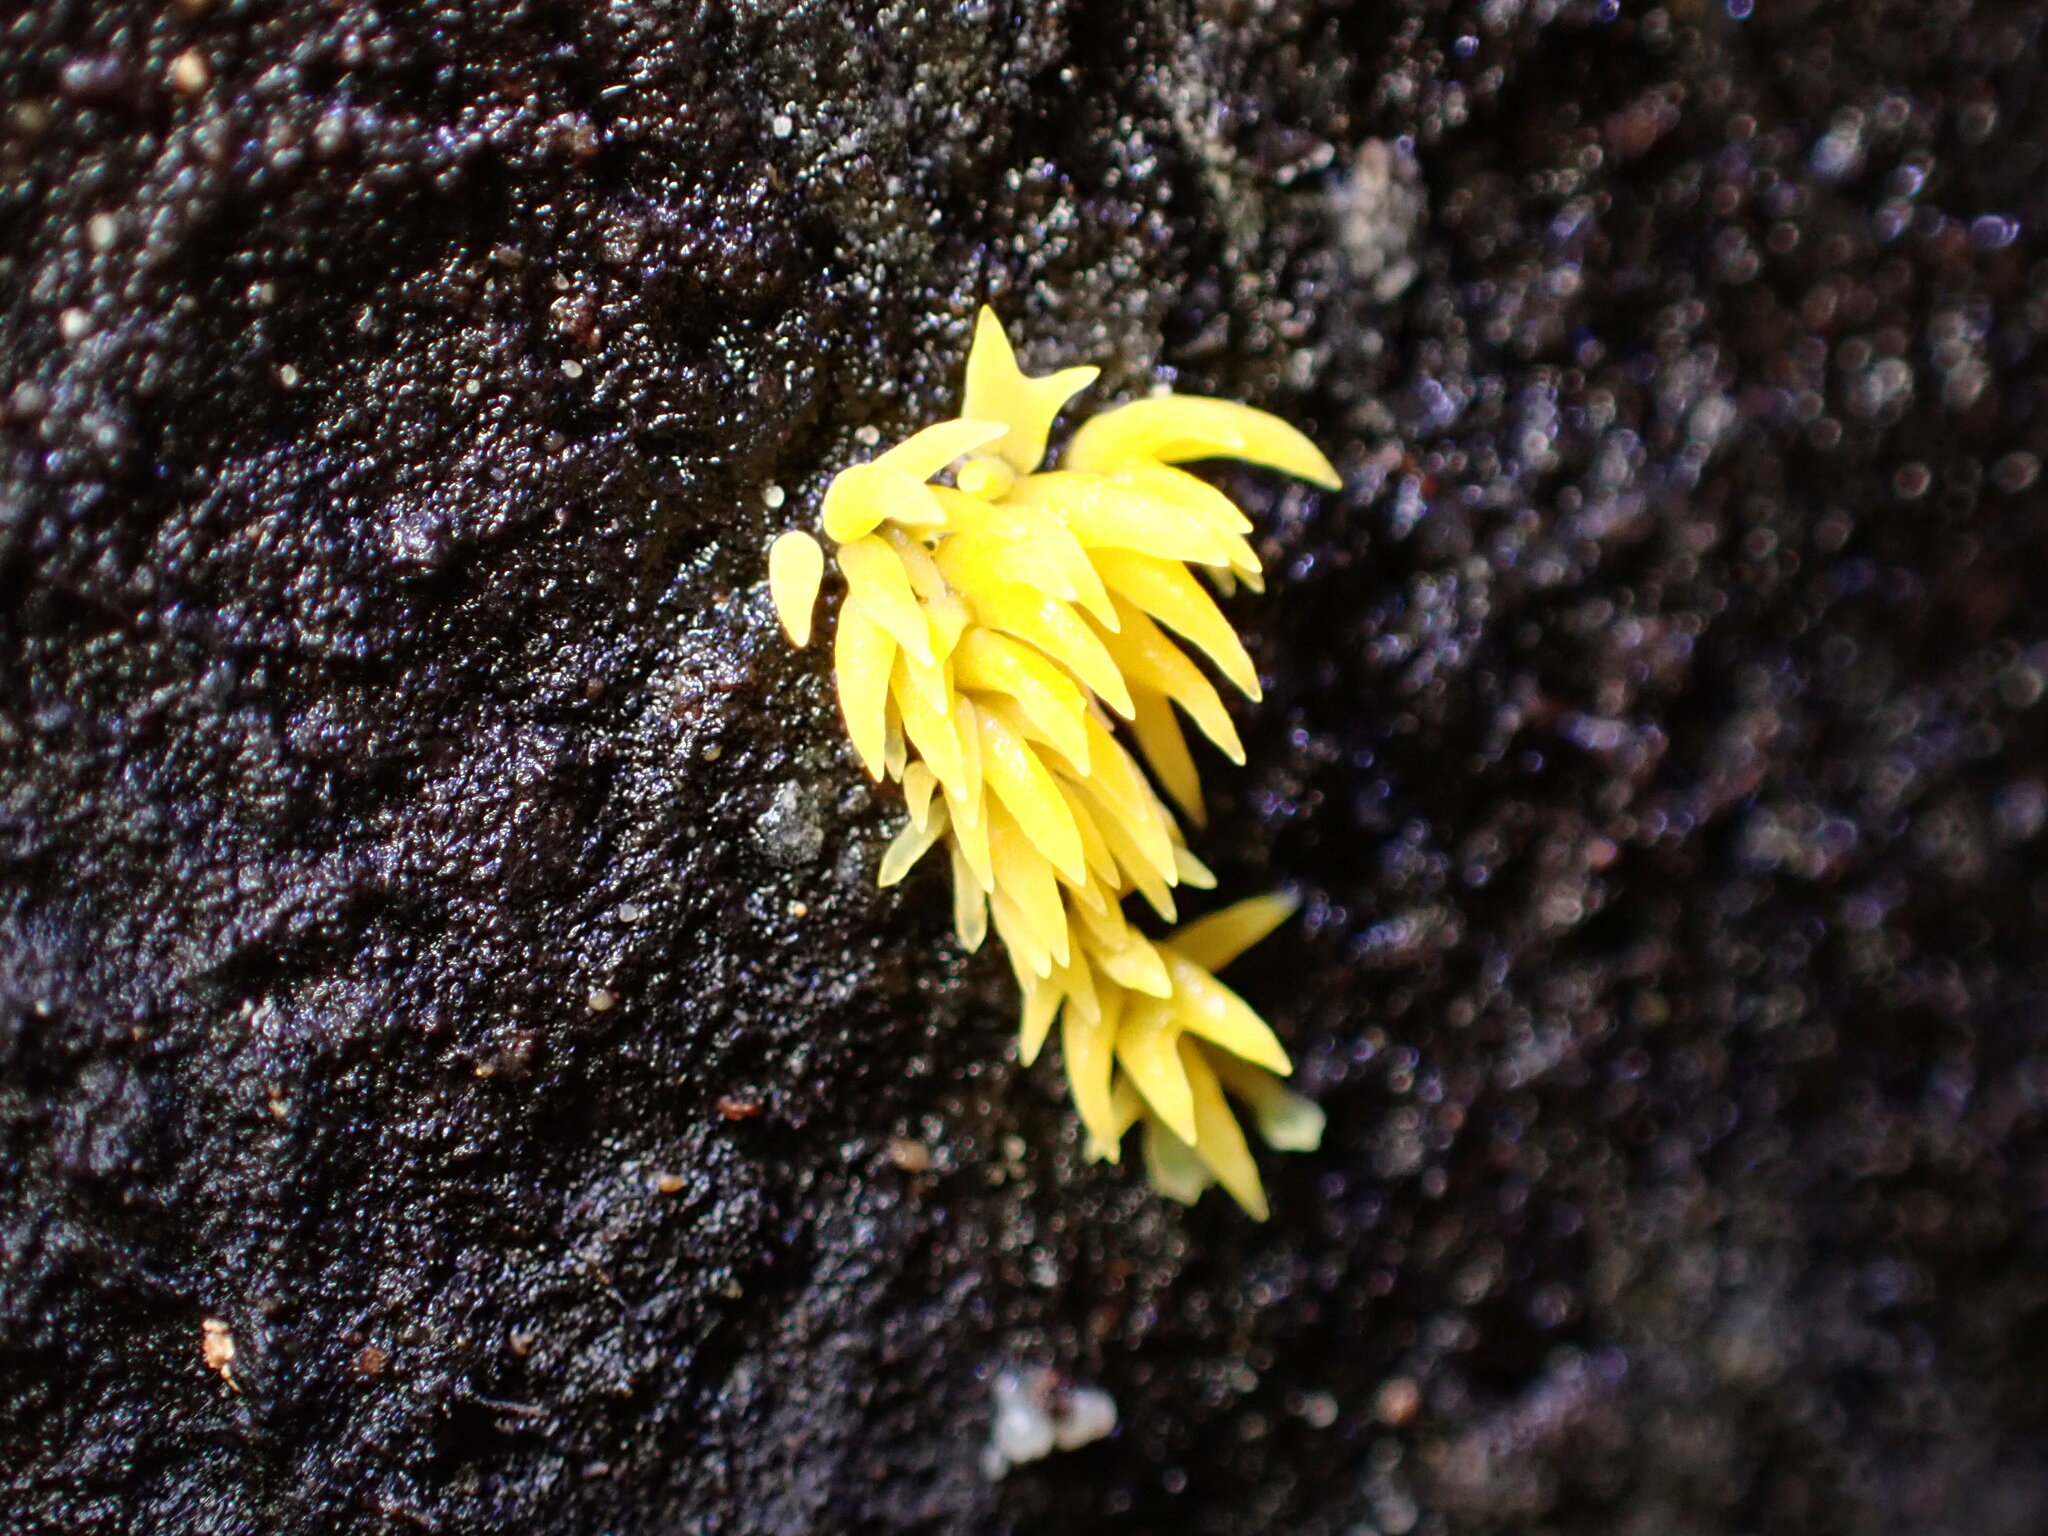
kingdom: Fungi
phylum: Basidiomycota
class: Agaricomycetes
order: Agaricales
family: Clavariaceae
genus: Mucronella
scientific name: Mucronella flava
